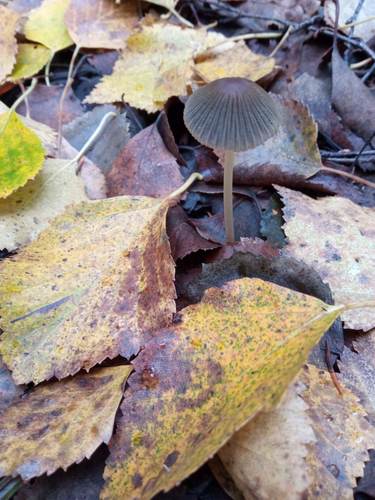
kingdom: Fungi
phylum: Basidiomycota
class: Agaricomycetes
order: Agaricales
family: Psathyrellaceae
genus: Parasola
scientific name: Parasola plicatilis
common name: Pleated inkcap
